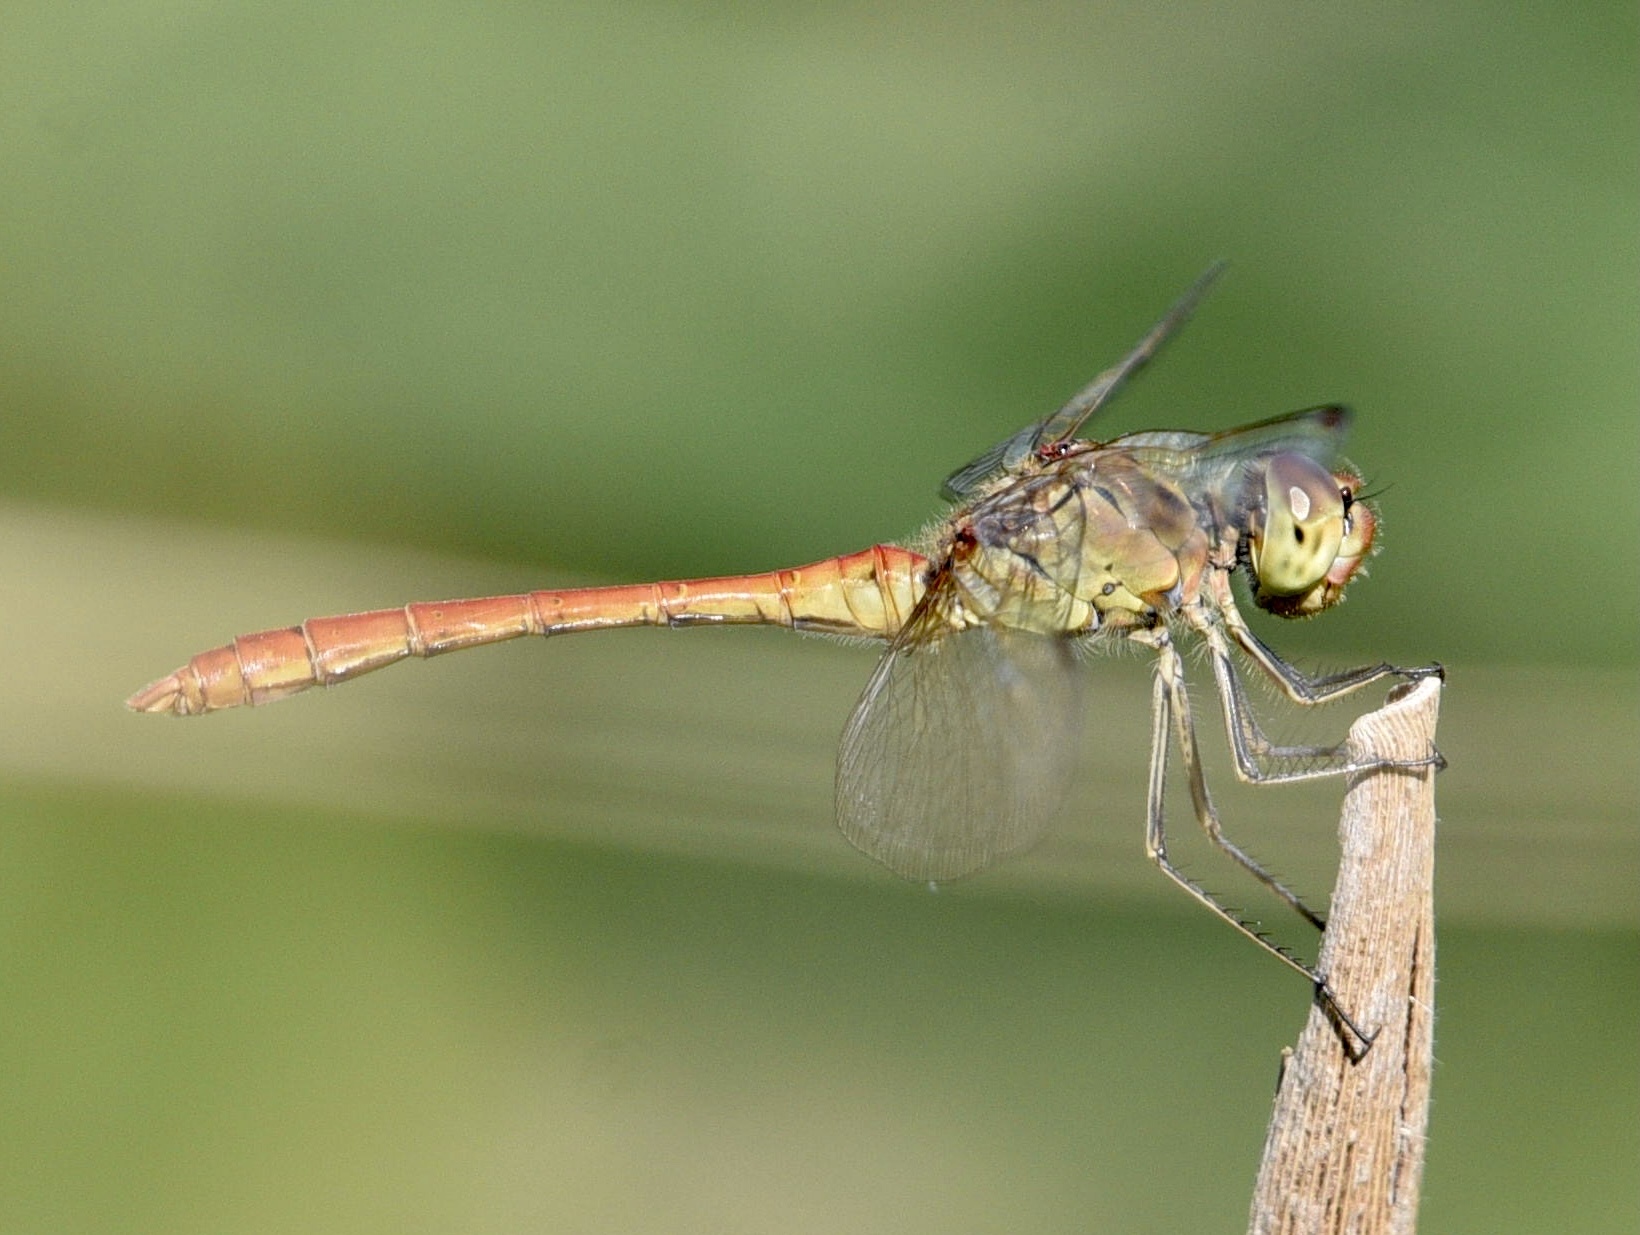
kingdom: Animalia
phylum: Arthropoda
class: Insecta
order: Odonata
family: Libellulidae
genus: Sympetrum
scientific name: Sympetrum meridionale
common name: Southern darter
